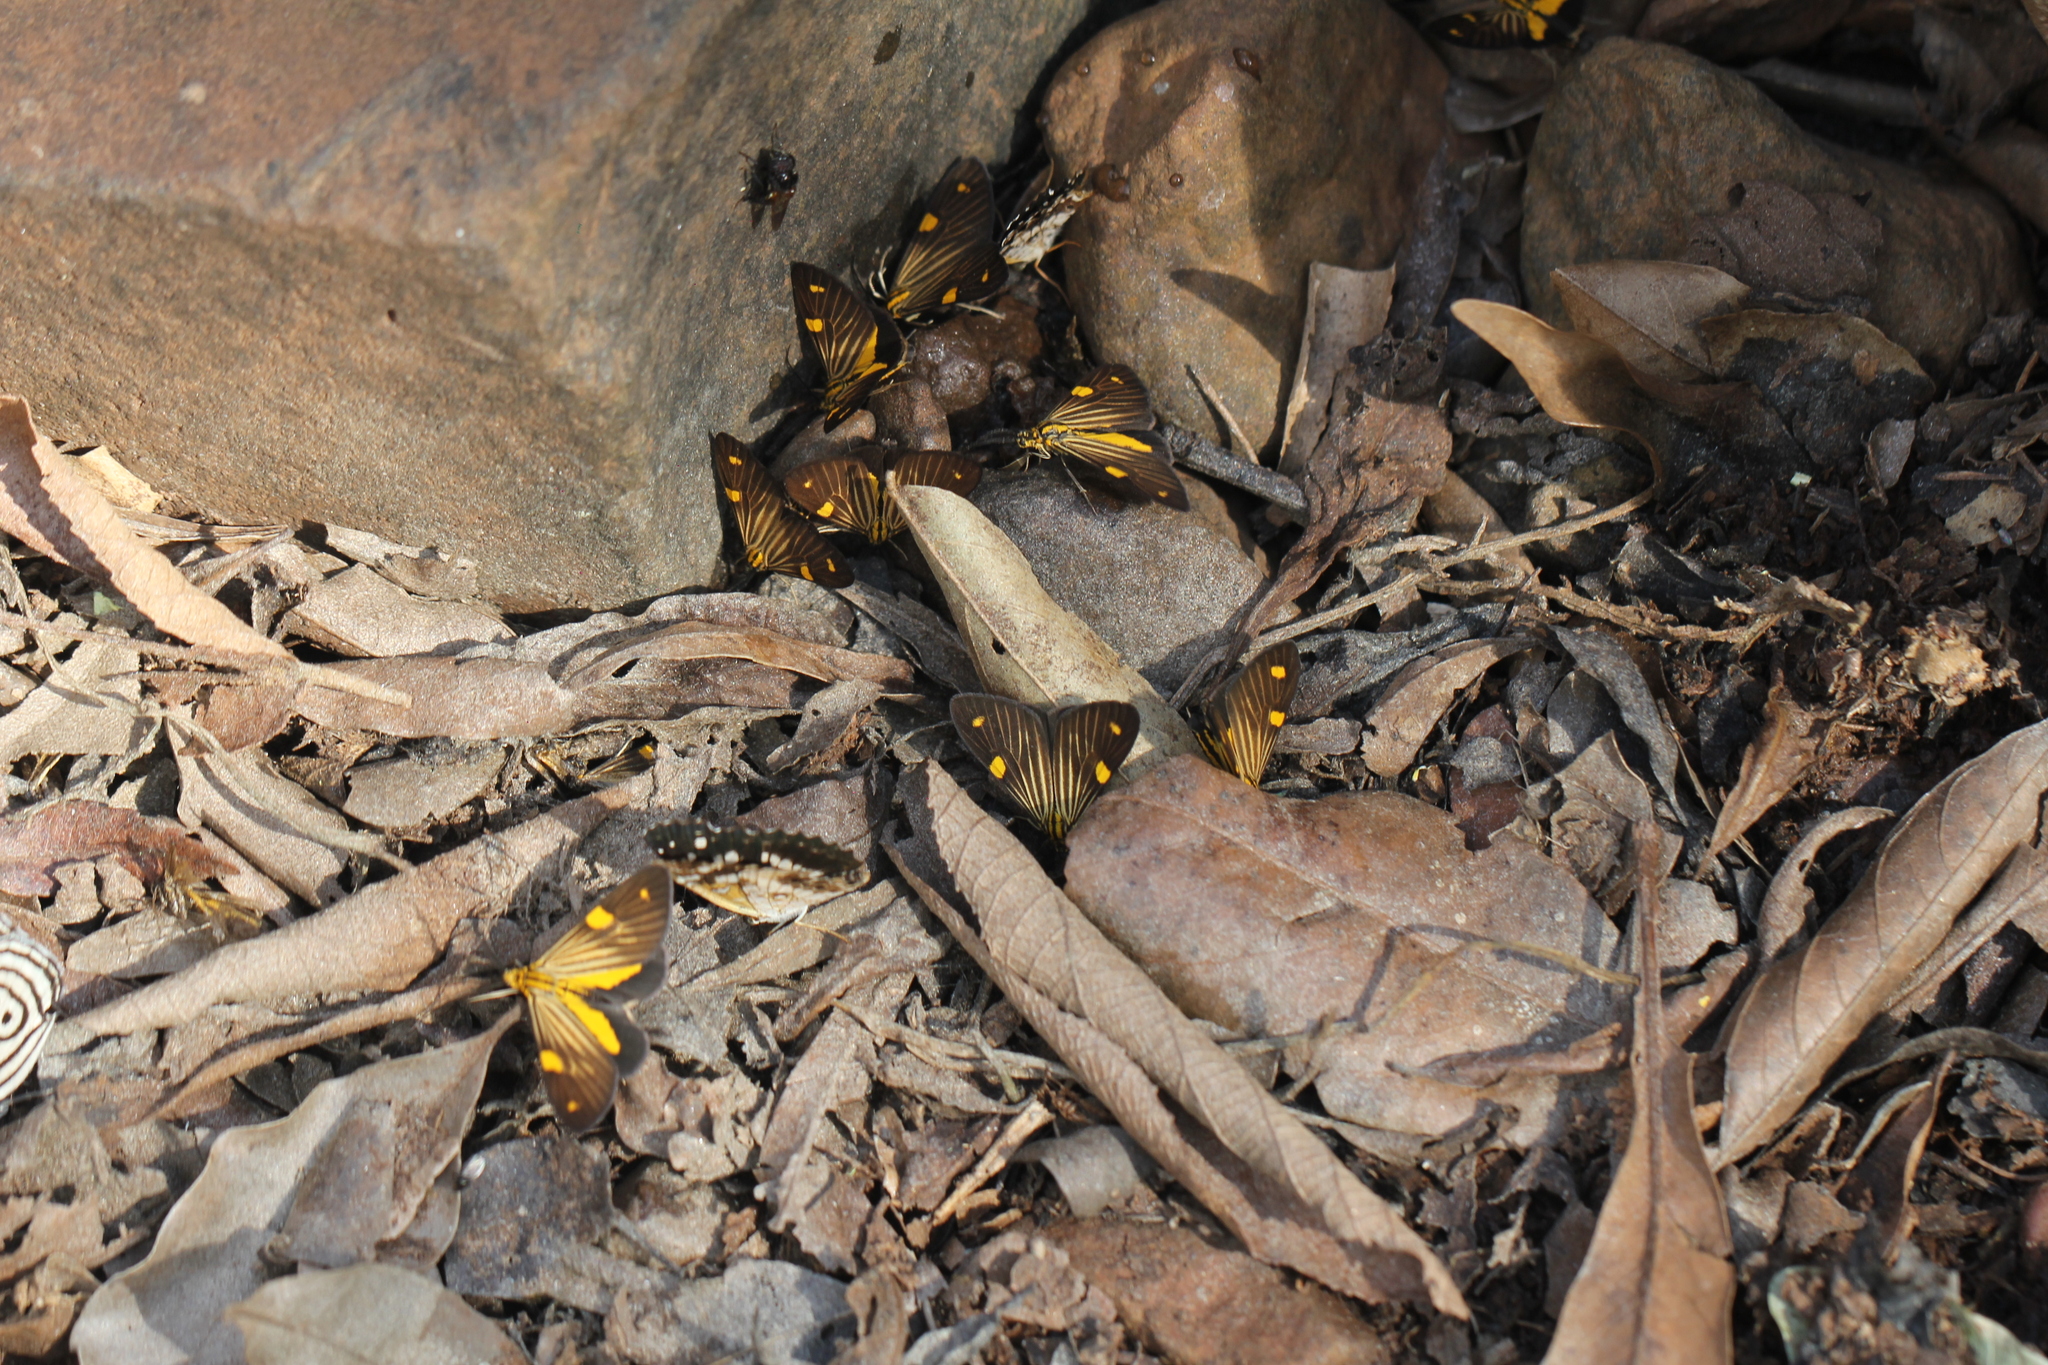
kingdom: Animalia
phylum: Arthropoda
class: Insecta
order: Lepidoptera
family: Notodontidae
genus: Phaeochlaena
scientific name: Phaeochlaena
